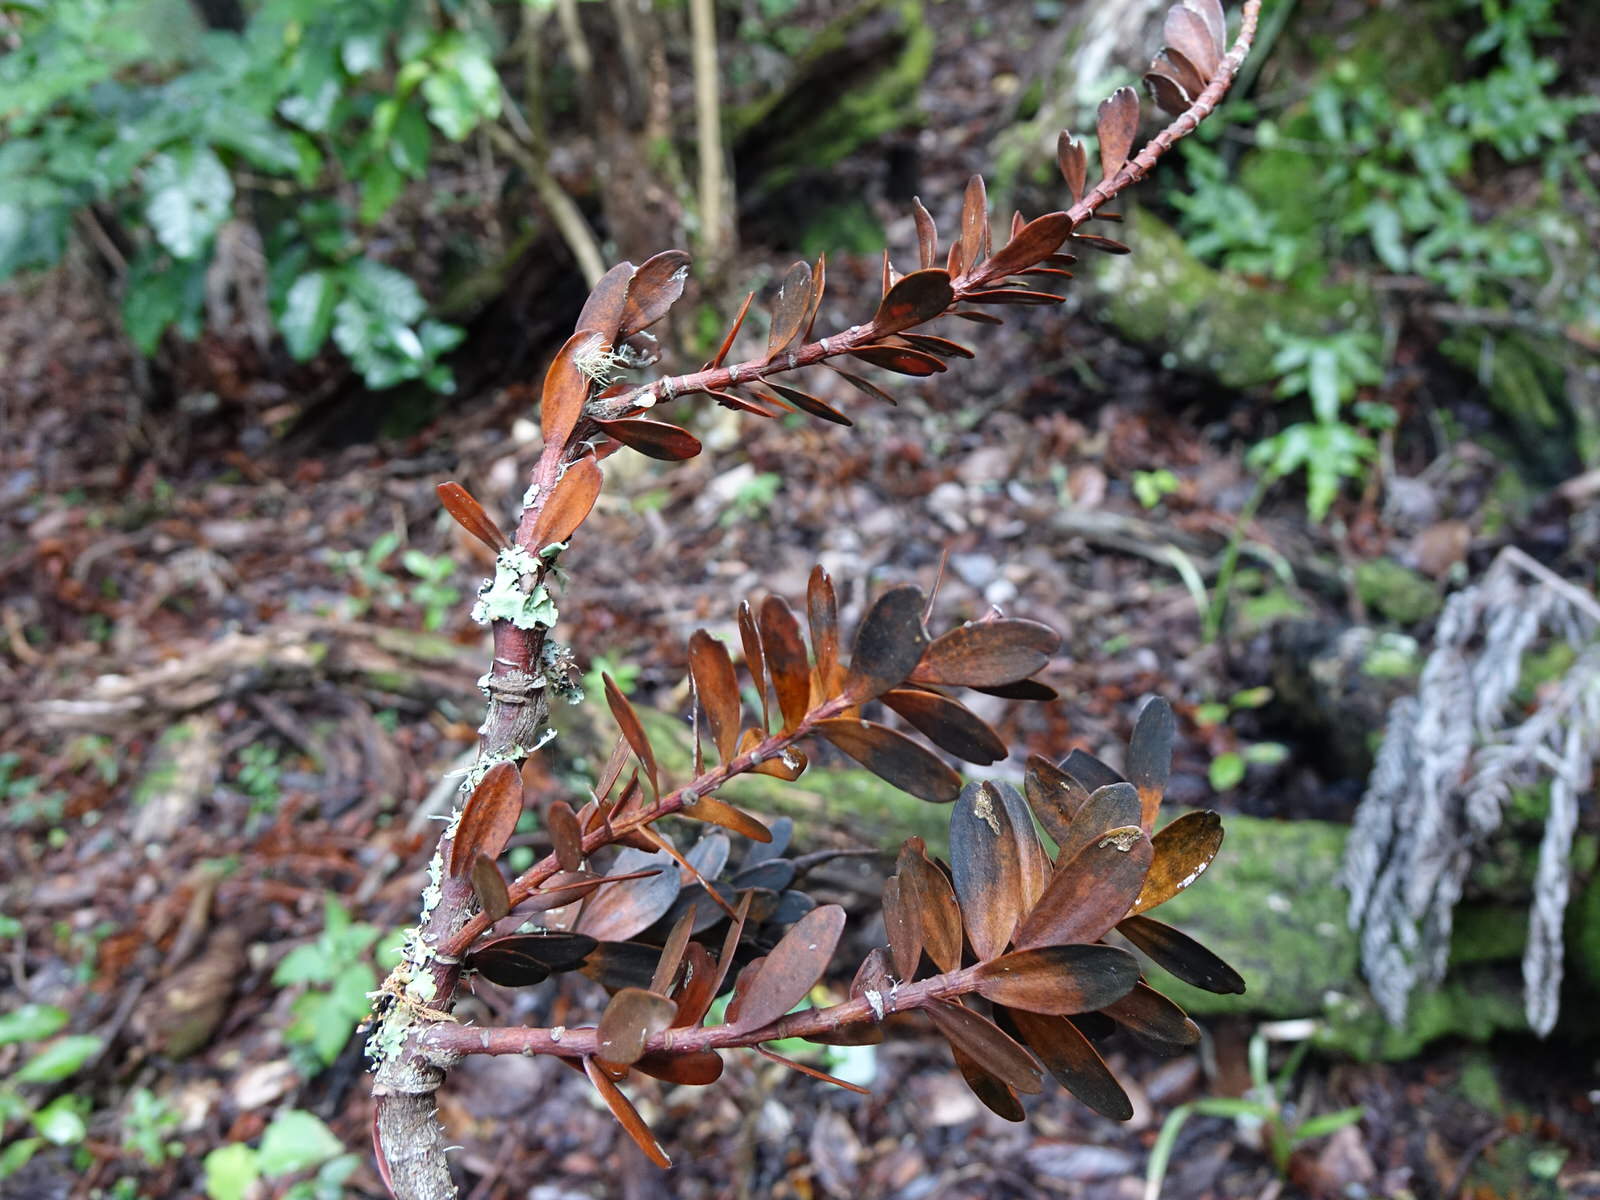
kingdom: Plantae
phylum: Tracheophyta
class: Pinopsida
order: Pinales
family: Araucariaceae
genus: Agathis
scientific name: Agathis australis
